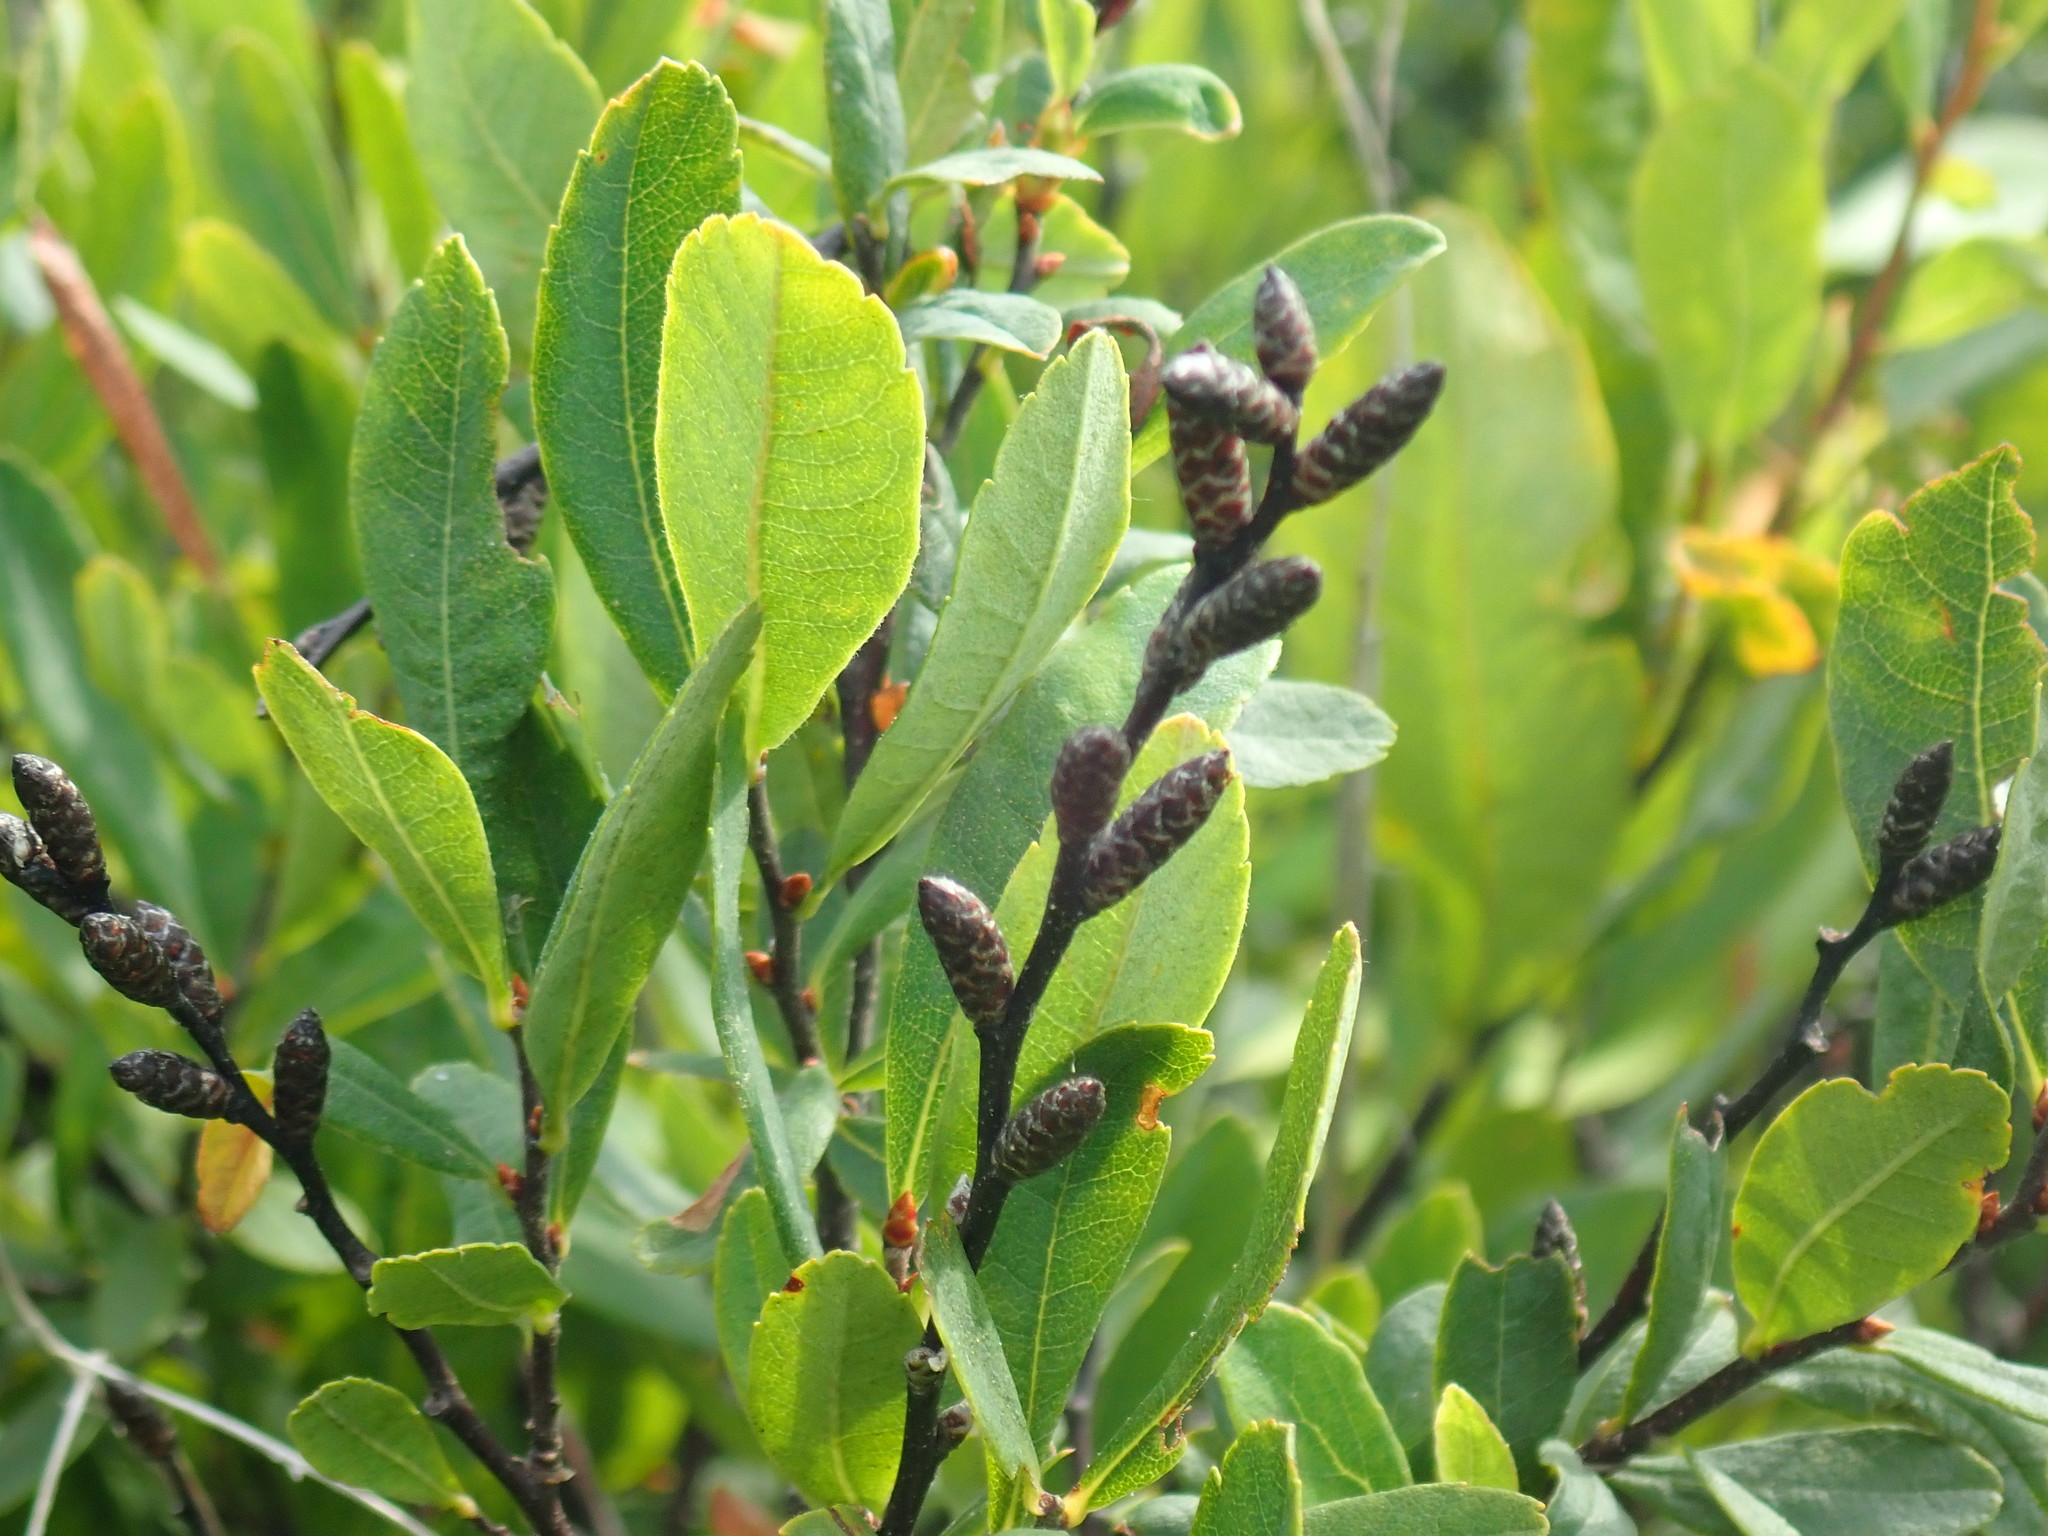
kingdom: Plantae
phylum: Tracheophyta
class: Magnoliopsida
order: Fagales
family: Myricaceae
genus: Myrica
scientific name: Myrica gale
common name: Sweet gale
